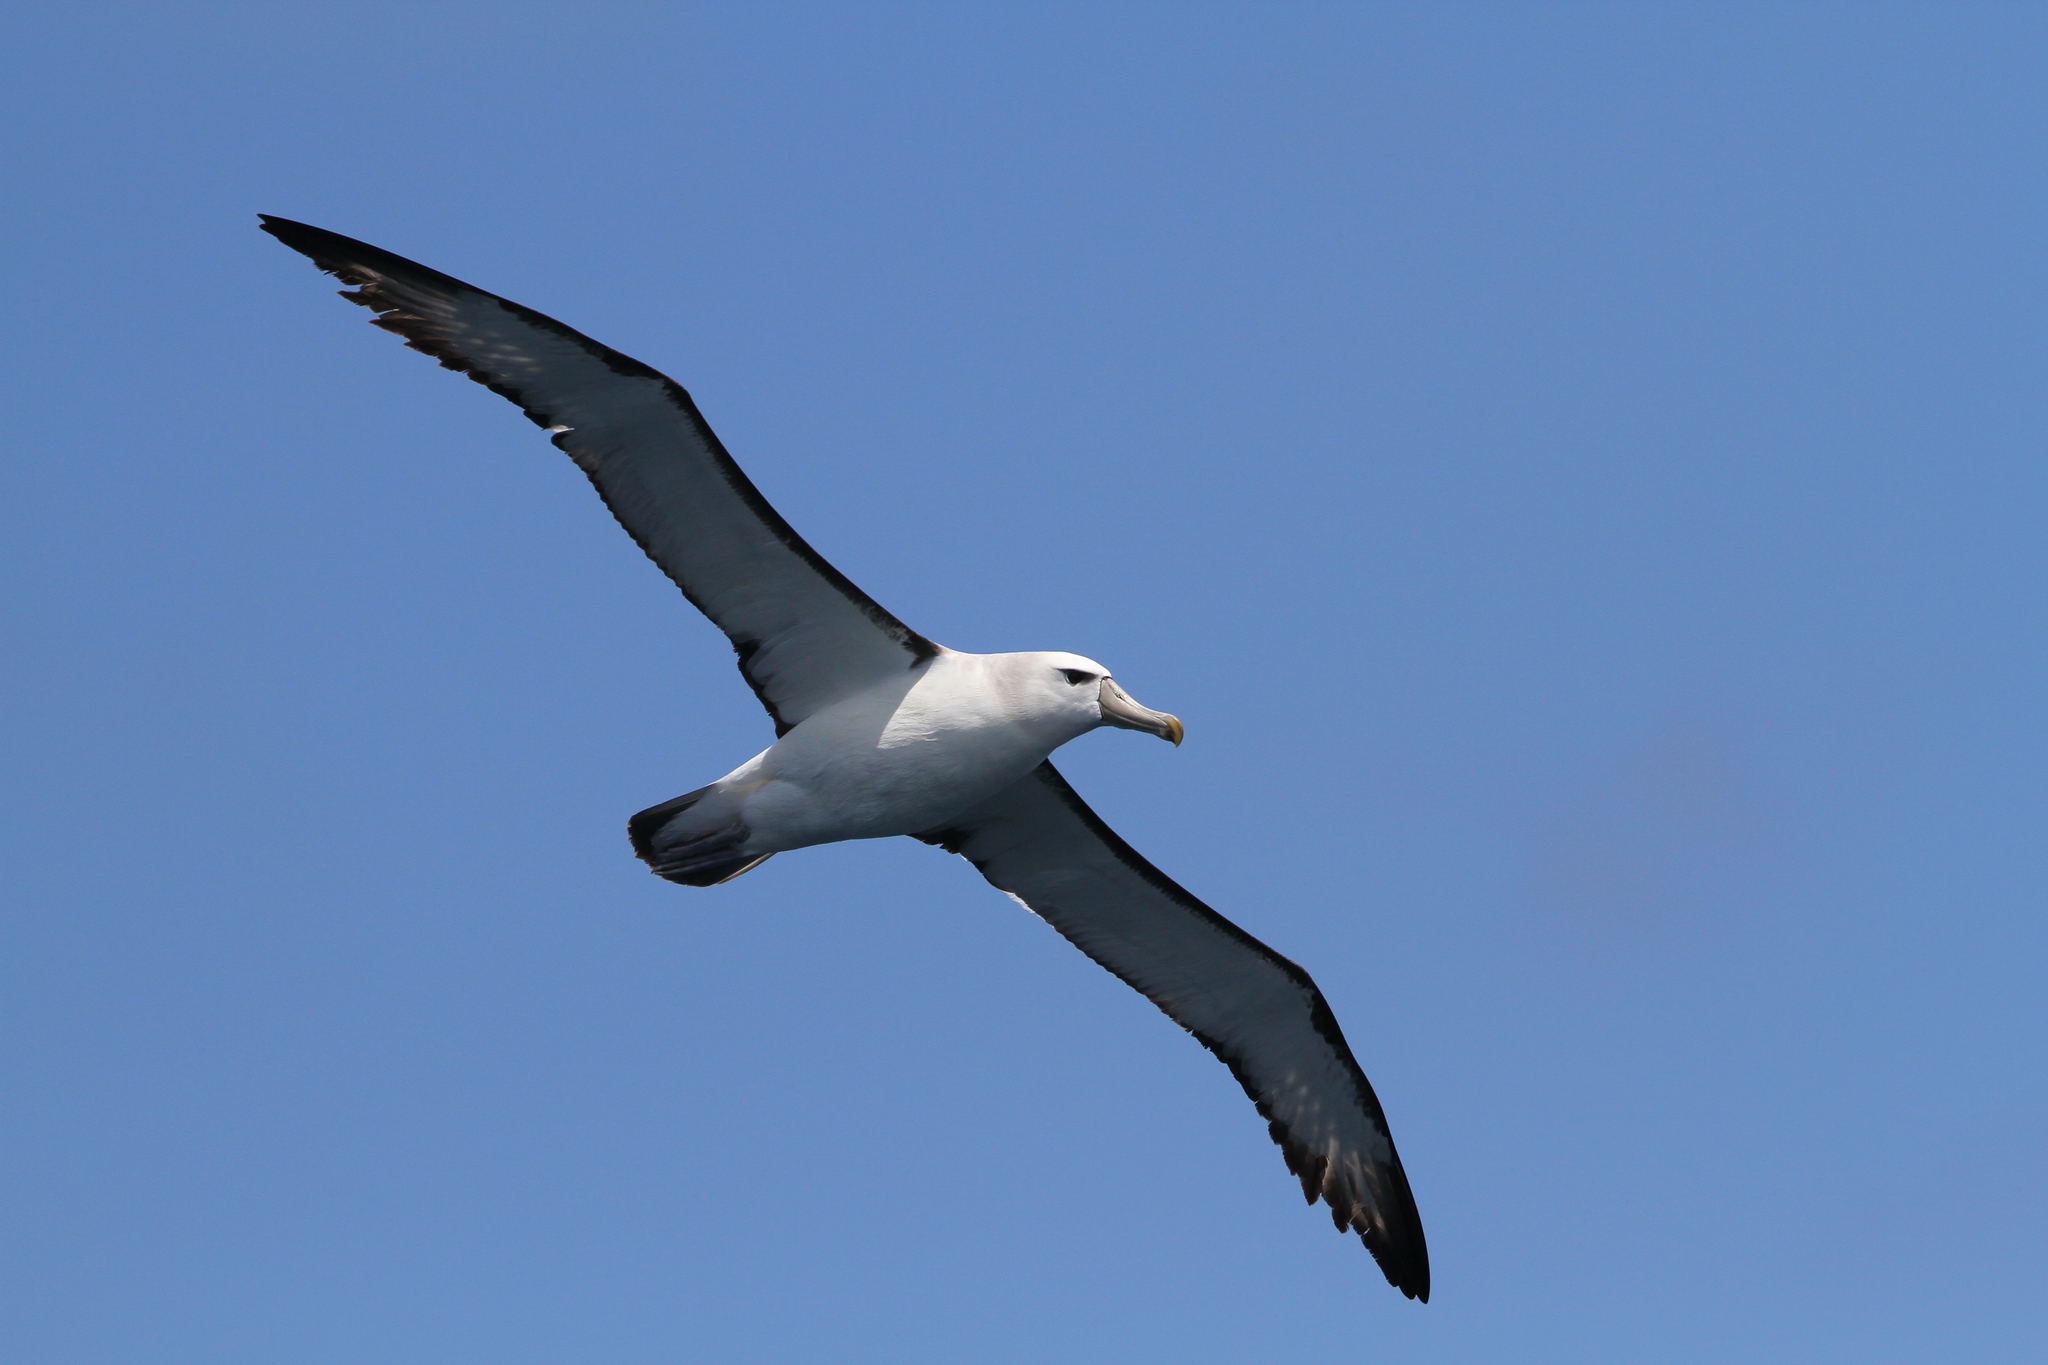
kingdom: Animalia
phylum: Chordata
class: Aves
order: Procellariiformes
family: Diomedeidae
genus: Thalassarche
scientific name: Thalassarche cauta
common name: Shy albatross
